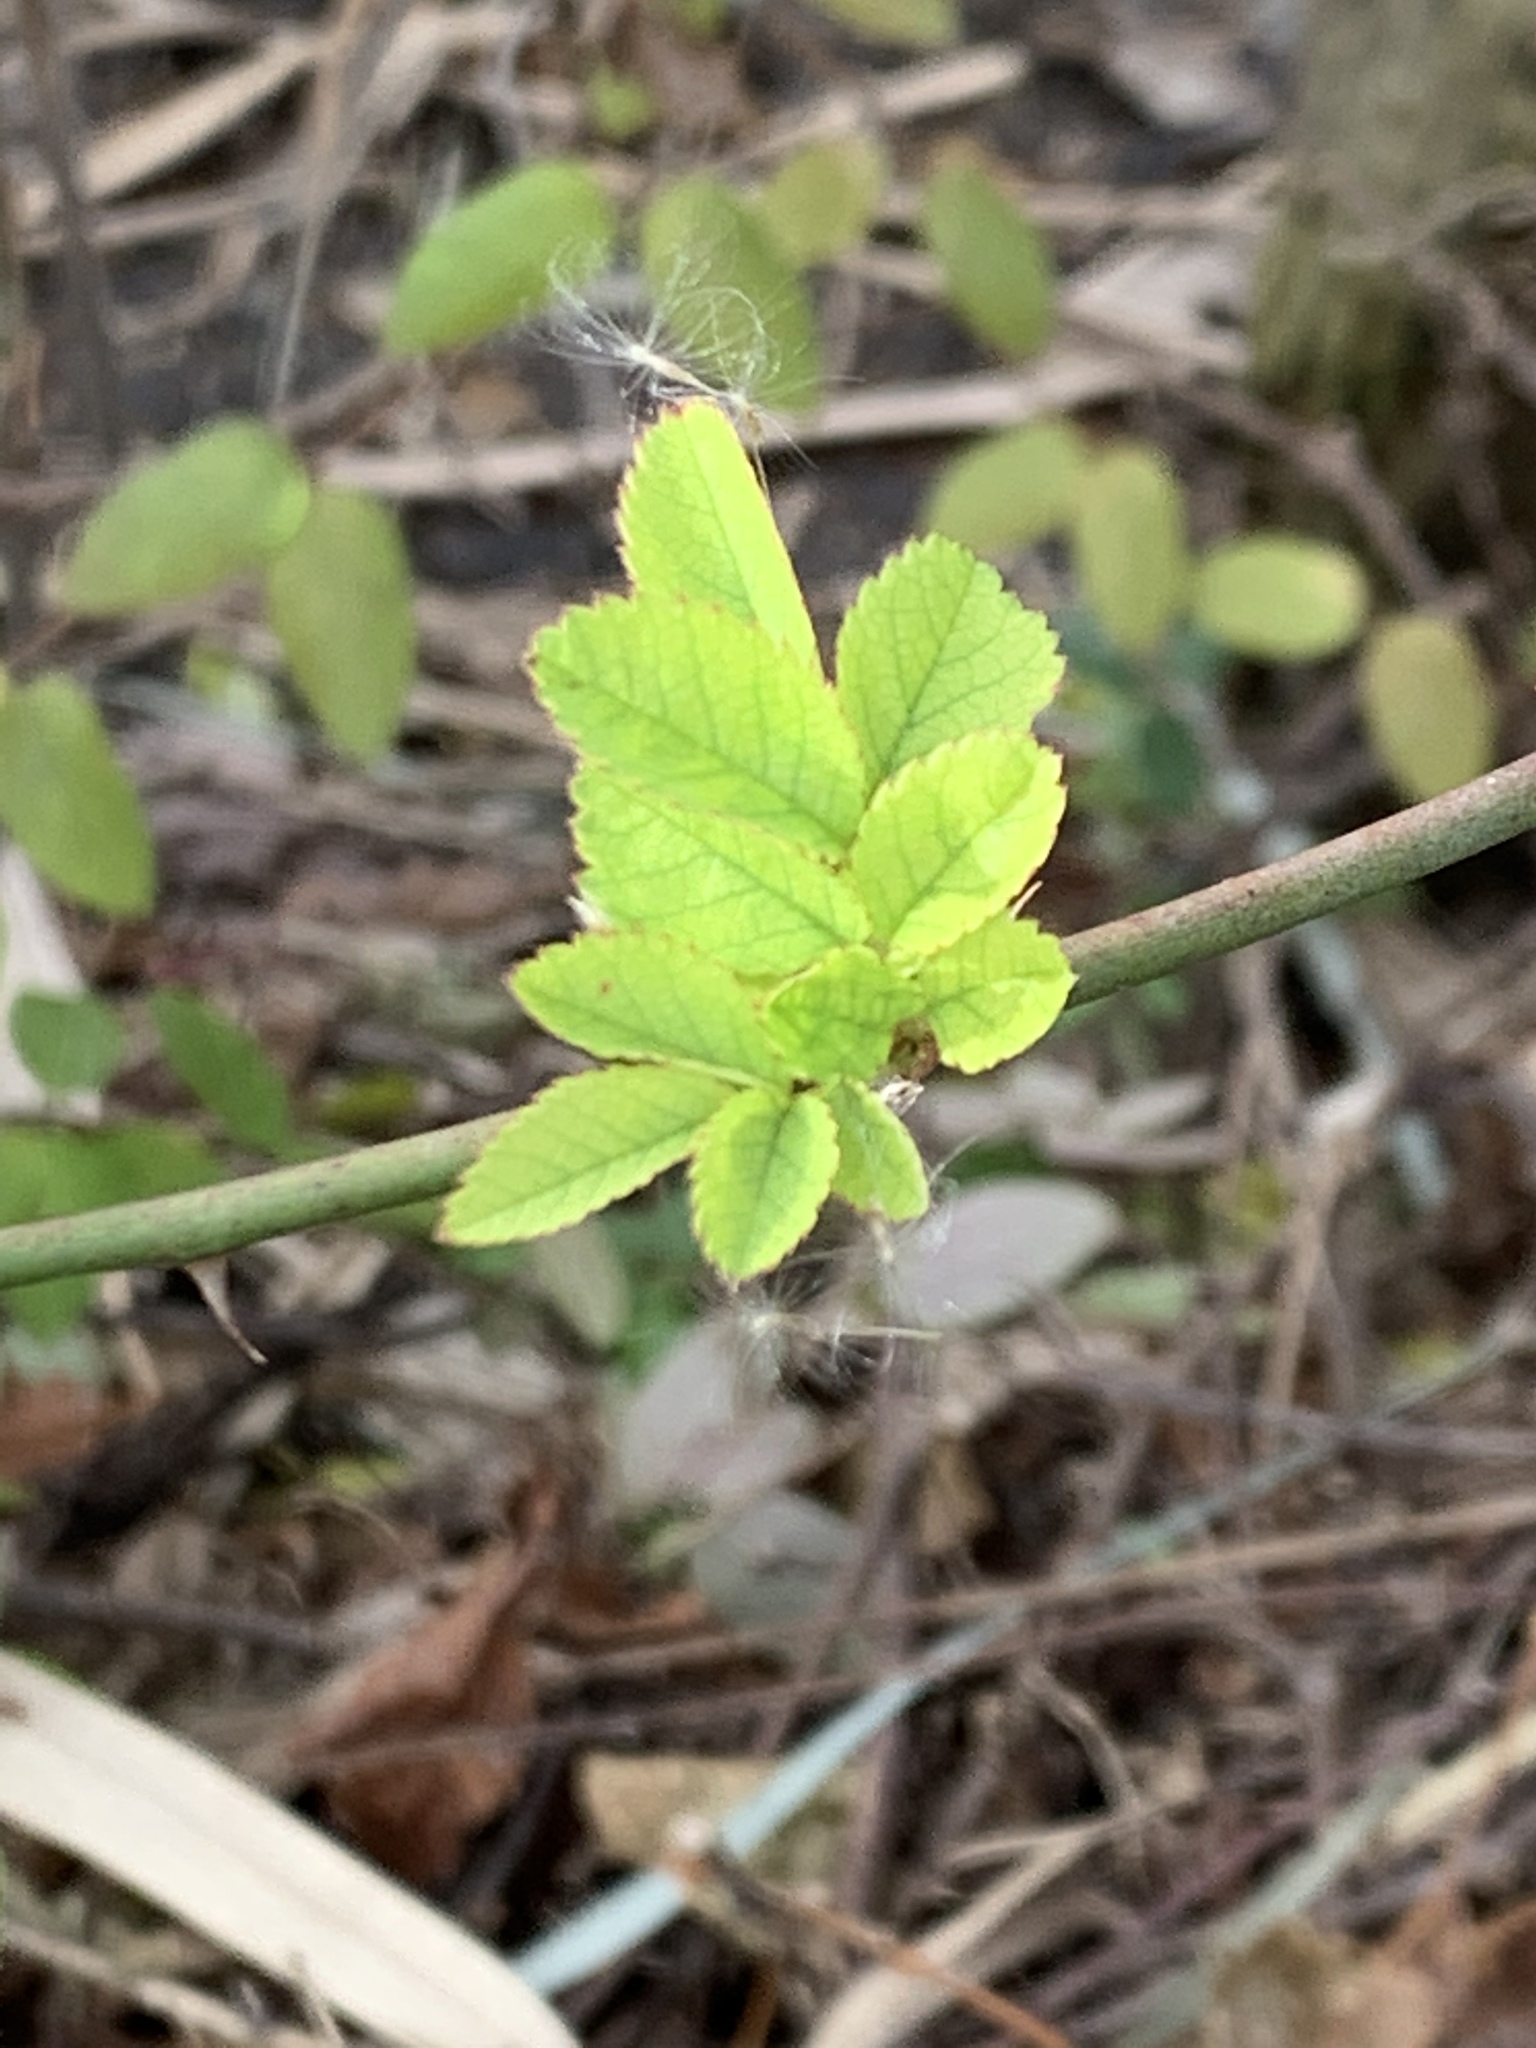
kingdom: Plantae
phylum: Tracheophyta
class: Magnoliopsida
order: Rosales
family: Rosaceae
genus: Rosa
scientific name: Rosa multiflora
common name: Multiflora rose
